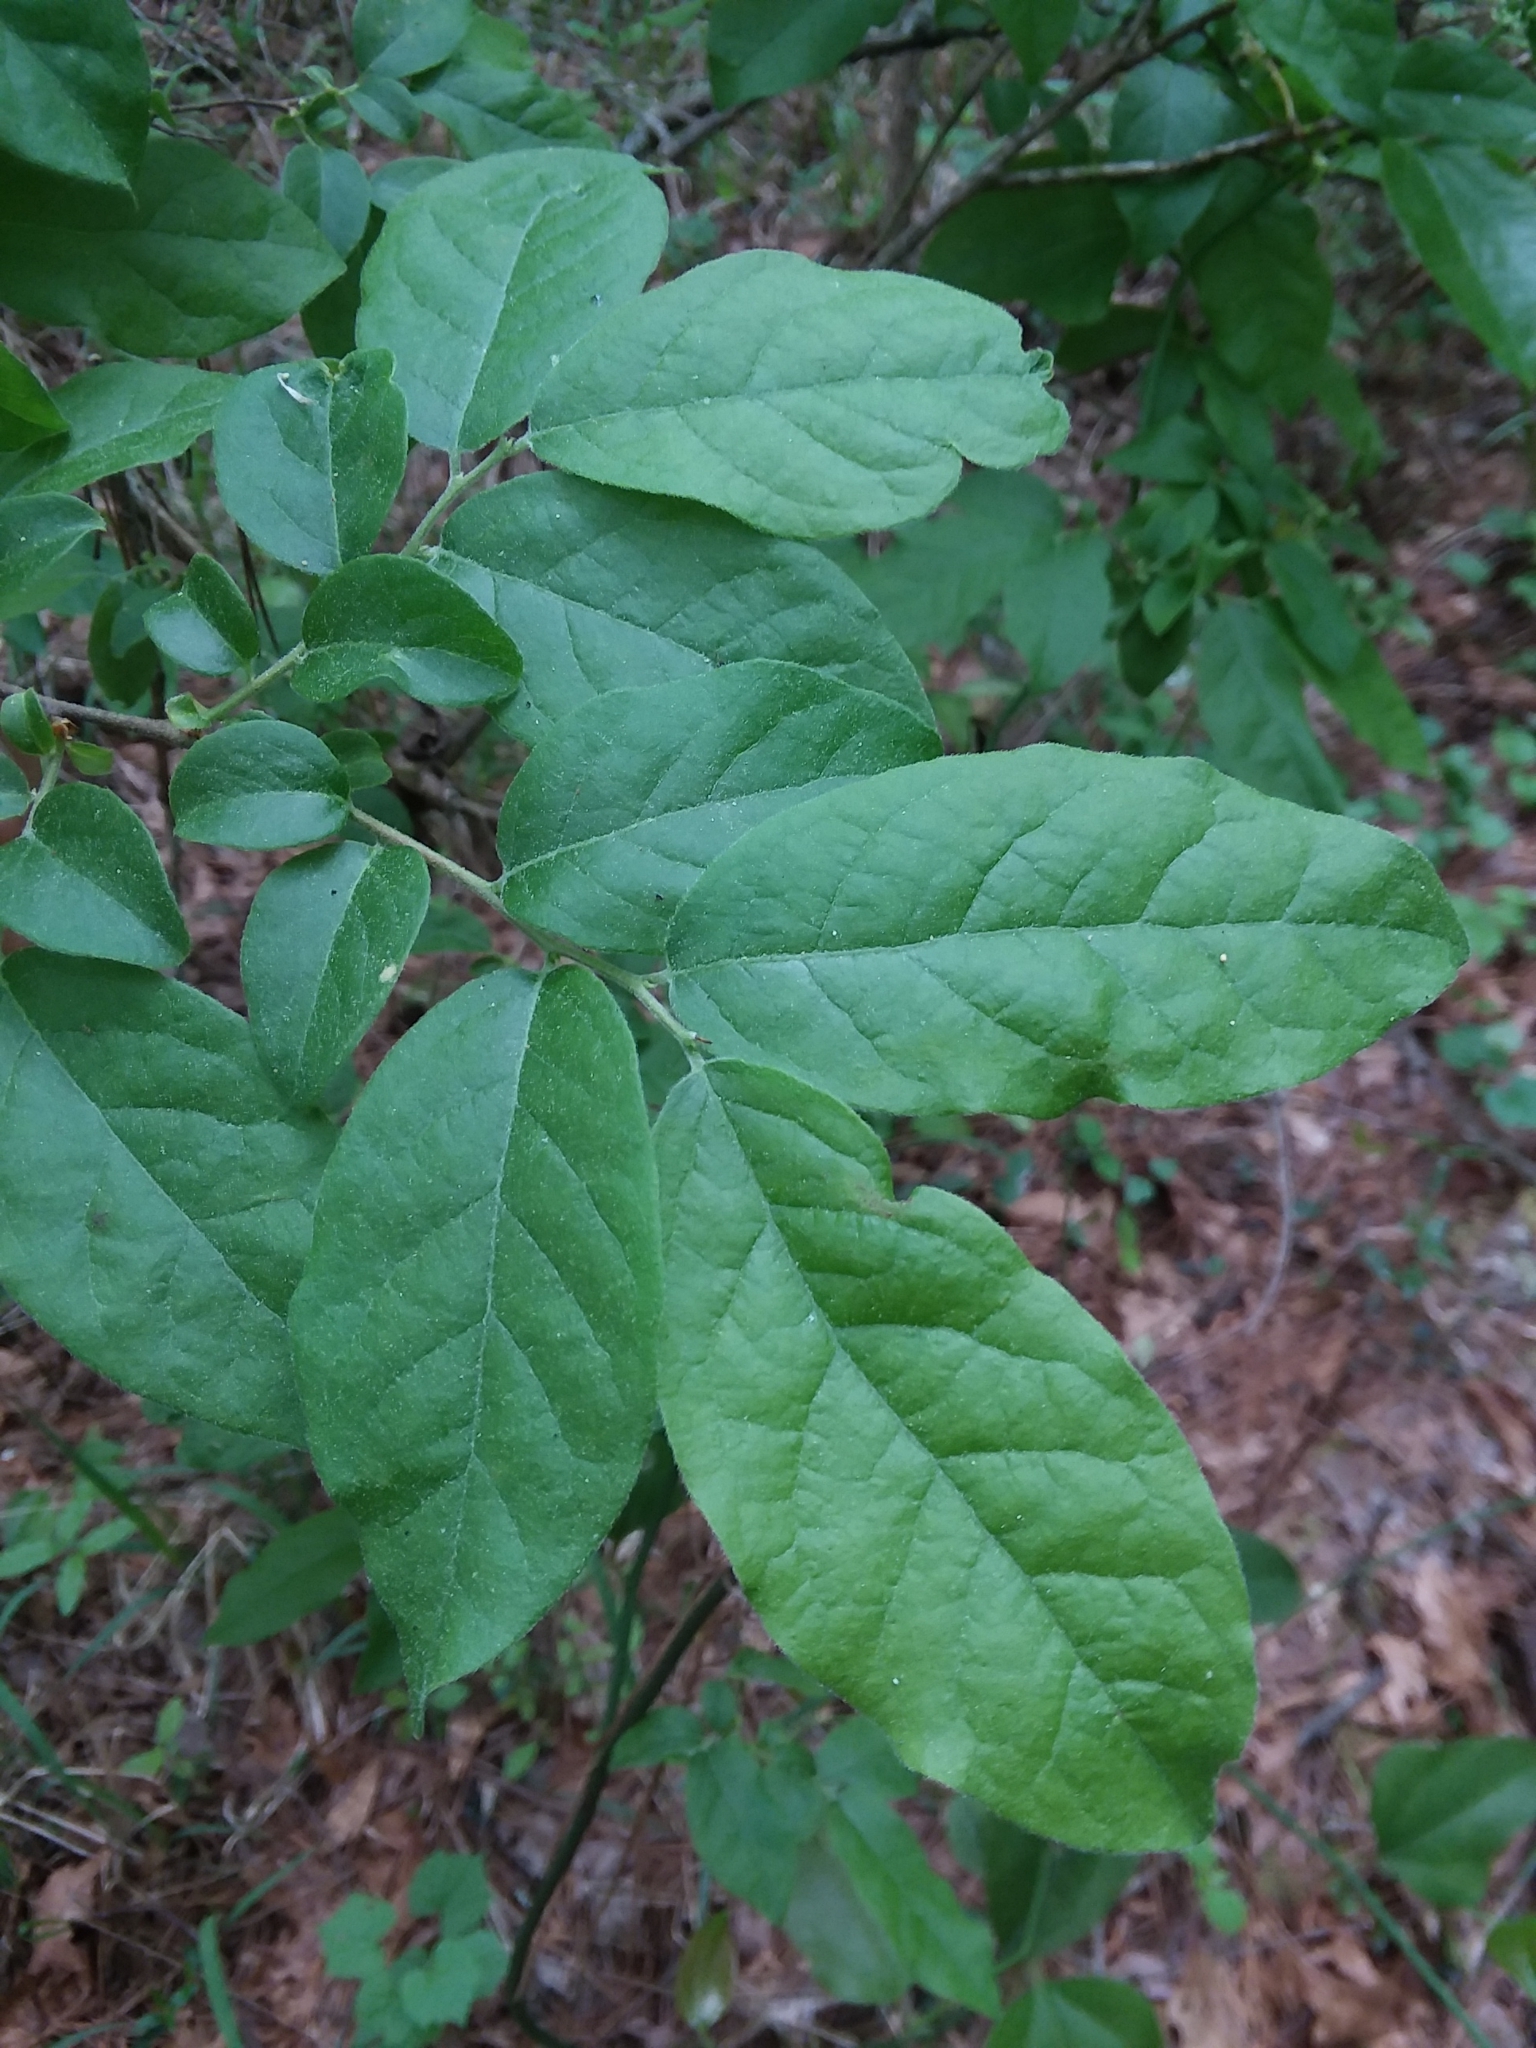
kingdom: Plantae
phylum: Tracheophyta
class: Magnoliopsida
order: Ericales
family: Ericaceae
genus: Vaccinium
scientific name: Vaccinium stamineum
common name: Deerberry
